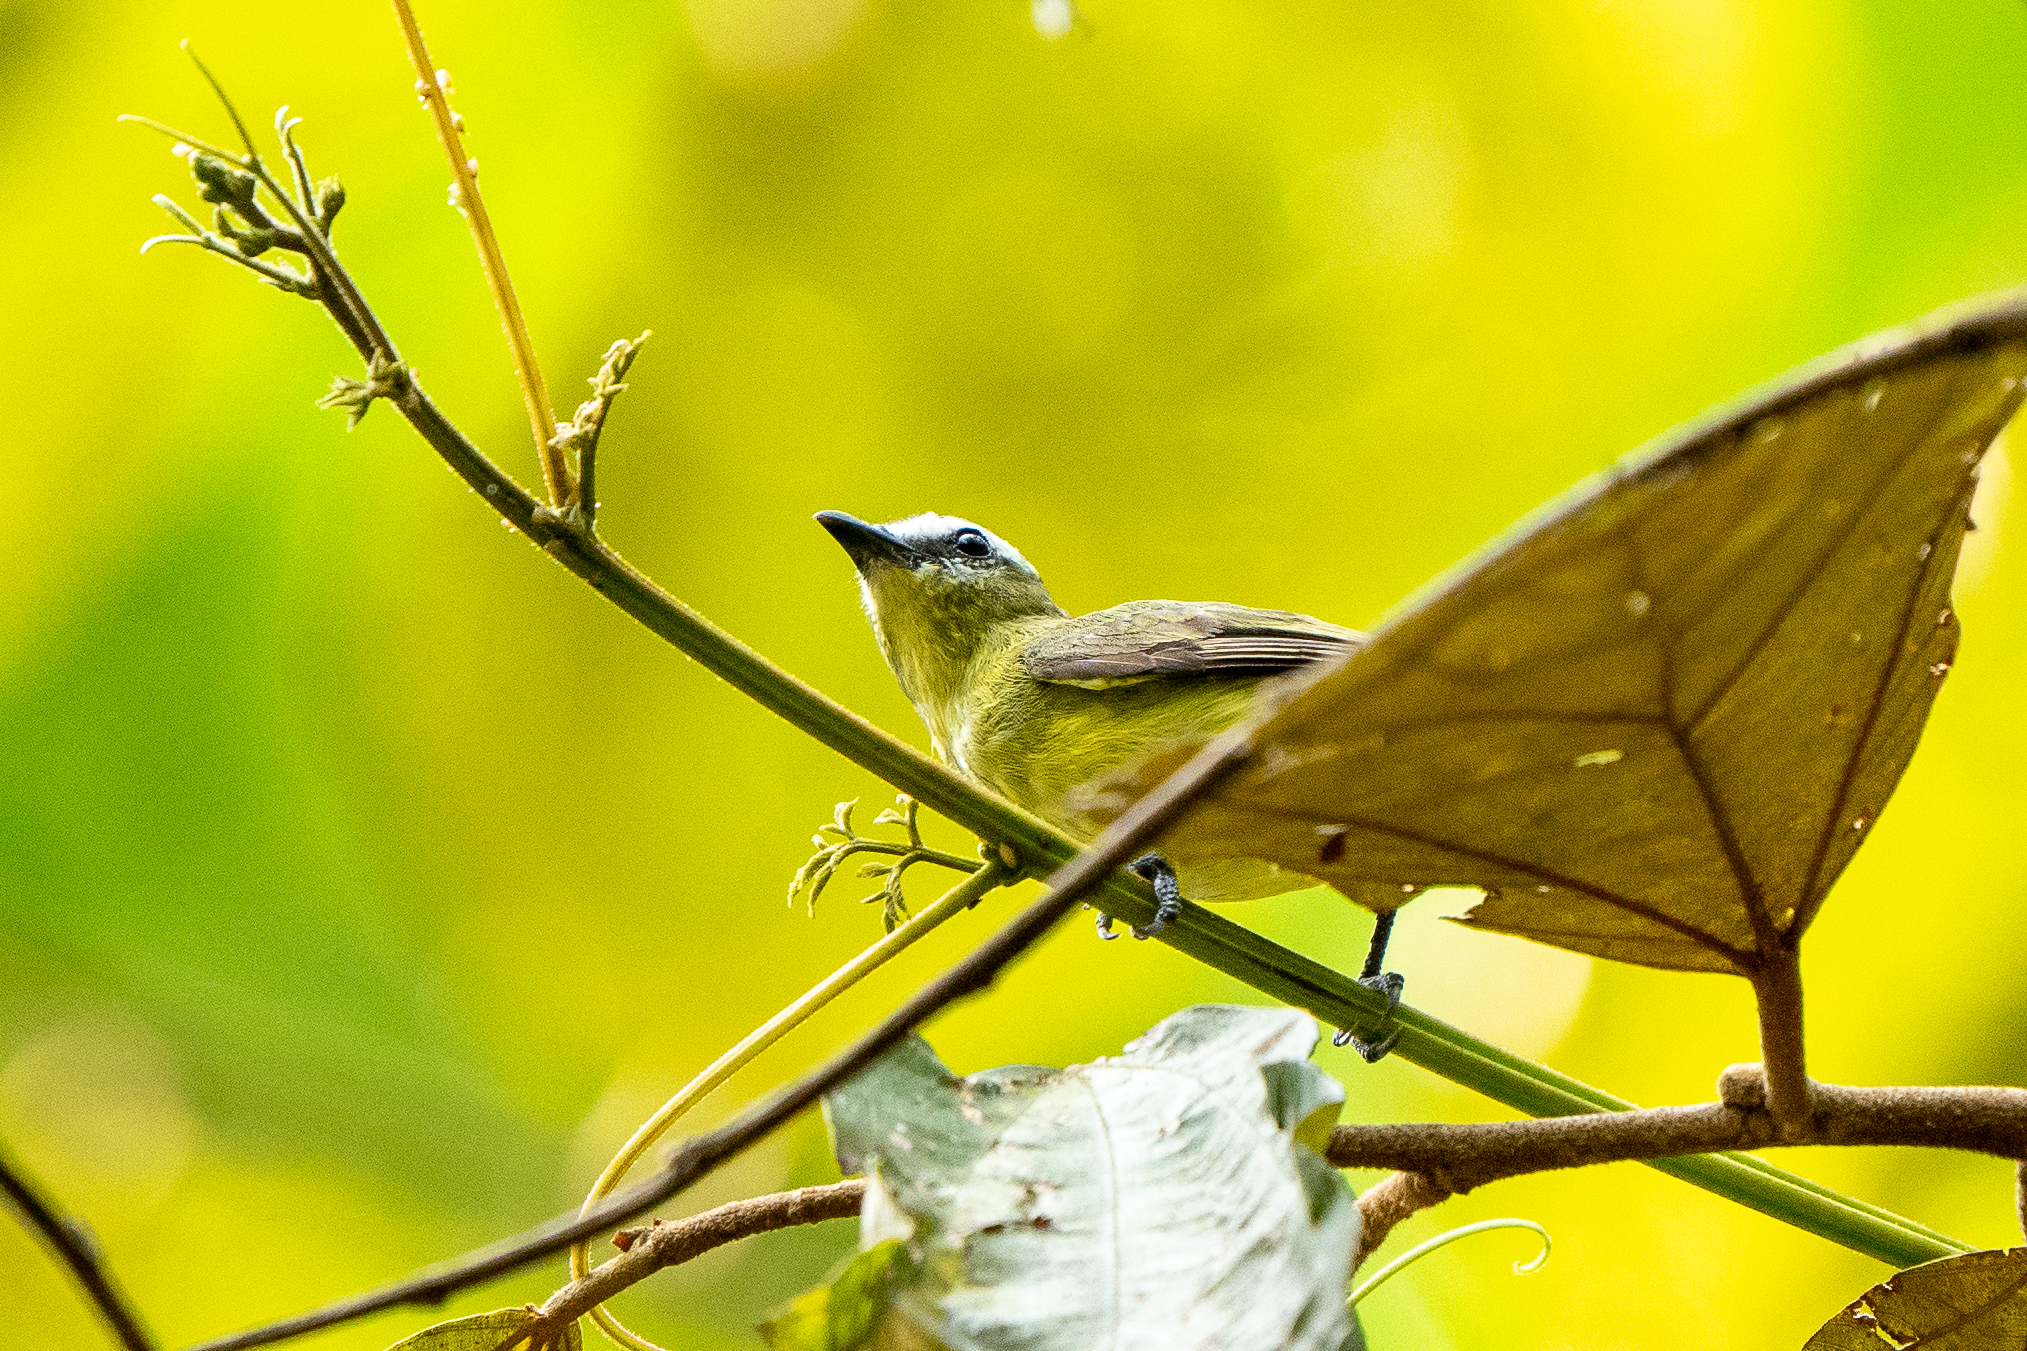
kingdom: Animalia
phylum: Chordata
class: Aves
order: Passeriformes
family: Tyrannidae
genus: Ornithion
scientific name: Ornithion brunneicapillus
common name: Brown-capped tyrannulet
